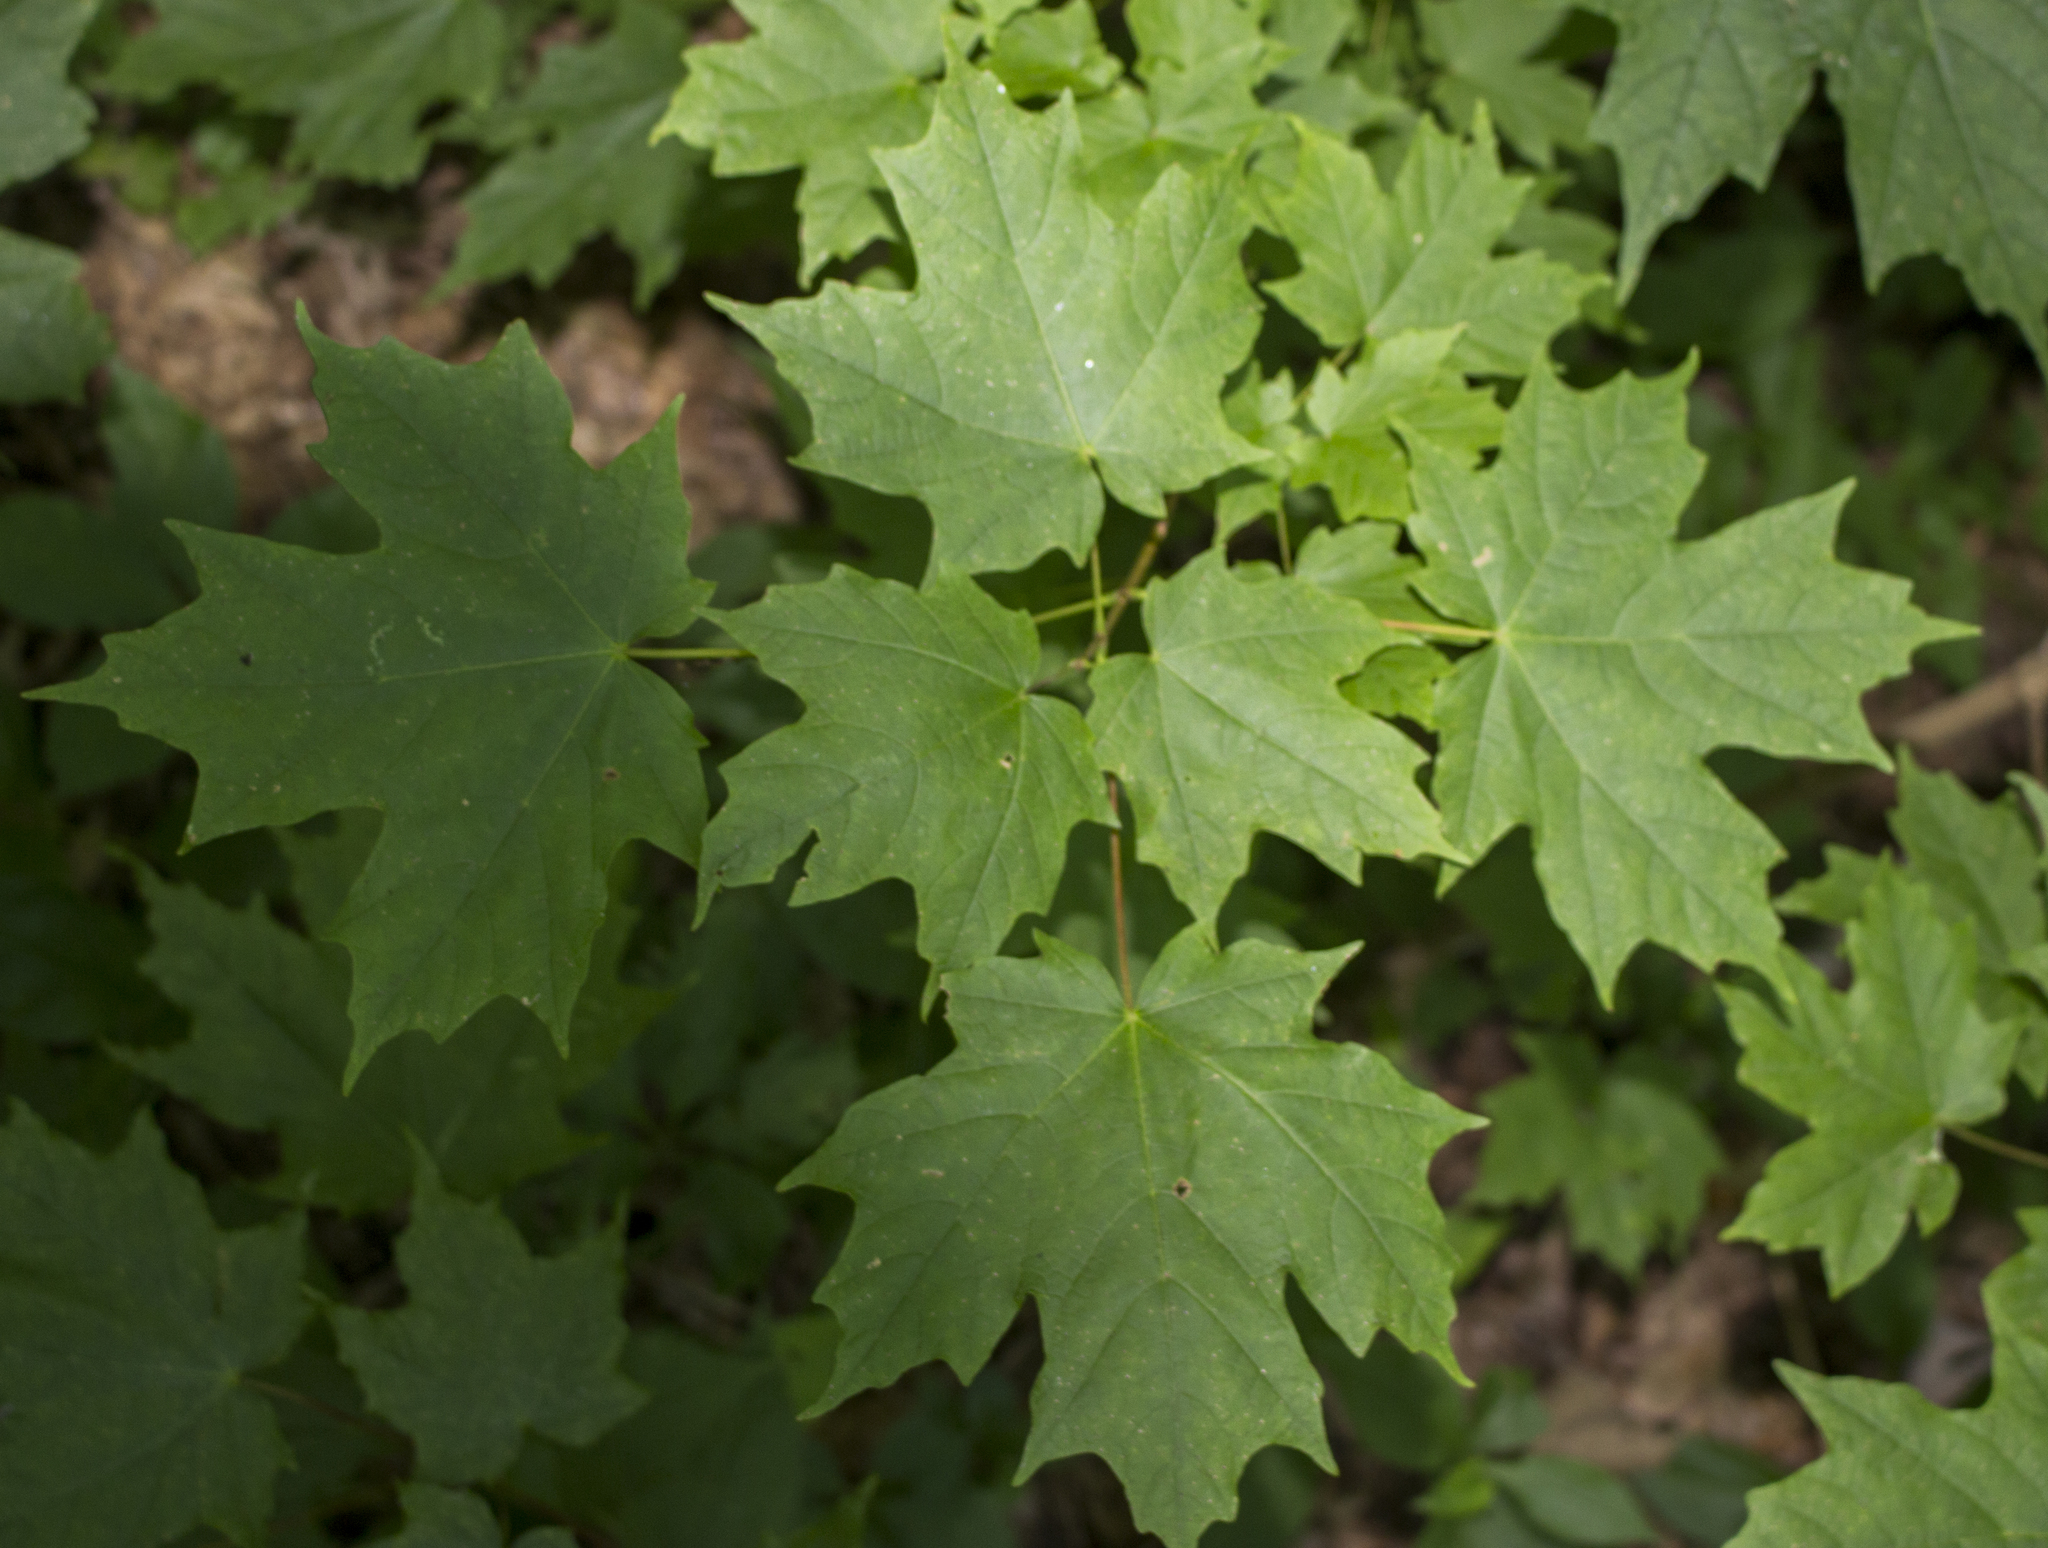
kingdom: Plantae
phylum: Tracheophyta
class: Magnoliopsida
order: Sapindales
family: Sapindaceae
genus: Acer
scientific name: Acer saccharum
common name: Sugar maple
